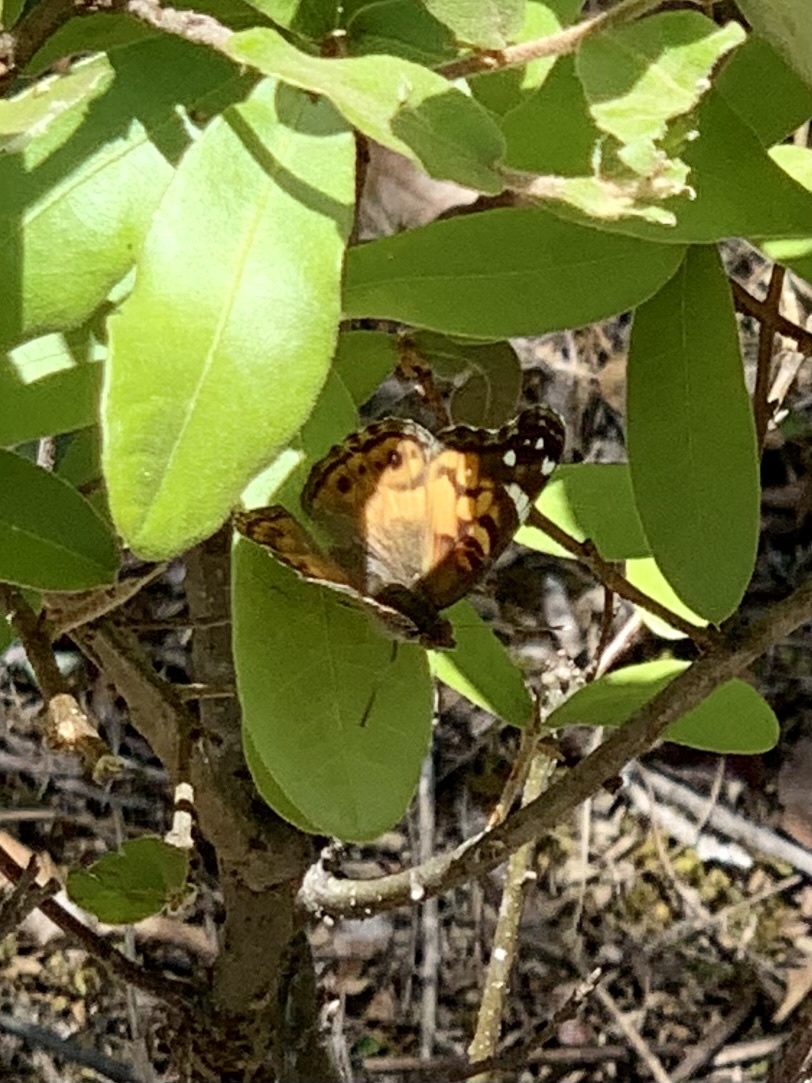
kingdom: Animalia
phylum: Arthropoda
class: Insecta
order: Lepidoptera
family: Nymphalidae
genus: Vanessa
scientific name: Vanessa virginiensis
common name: American lady
